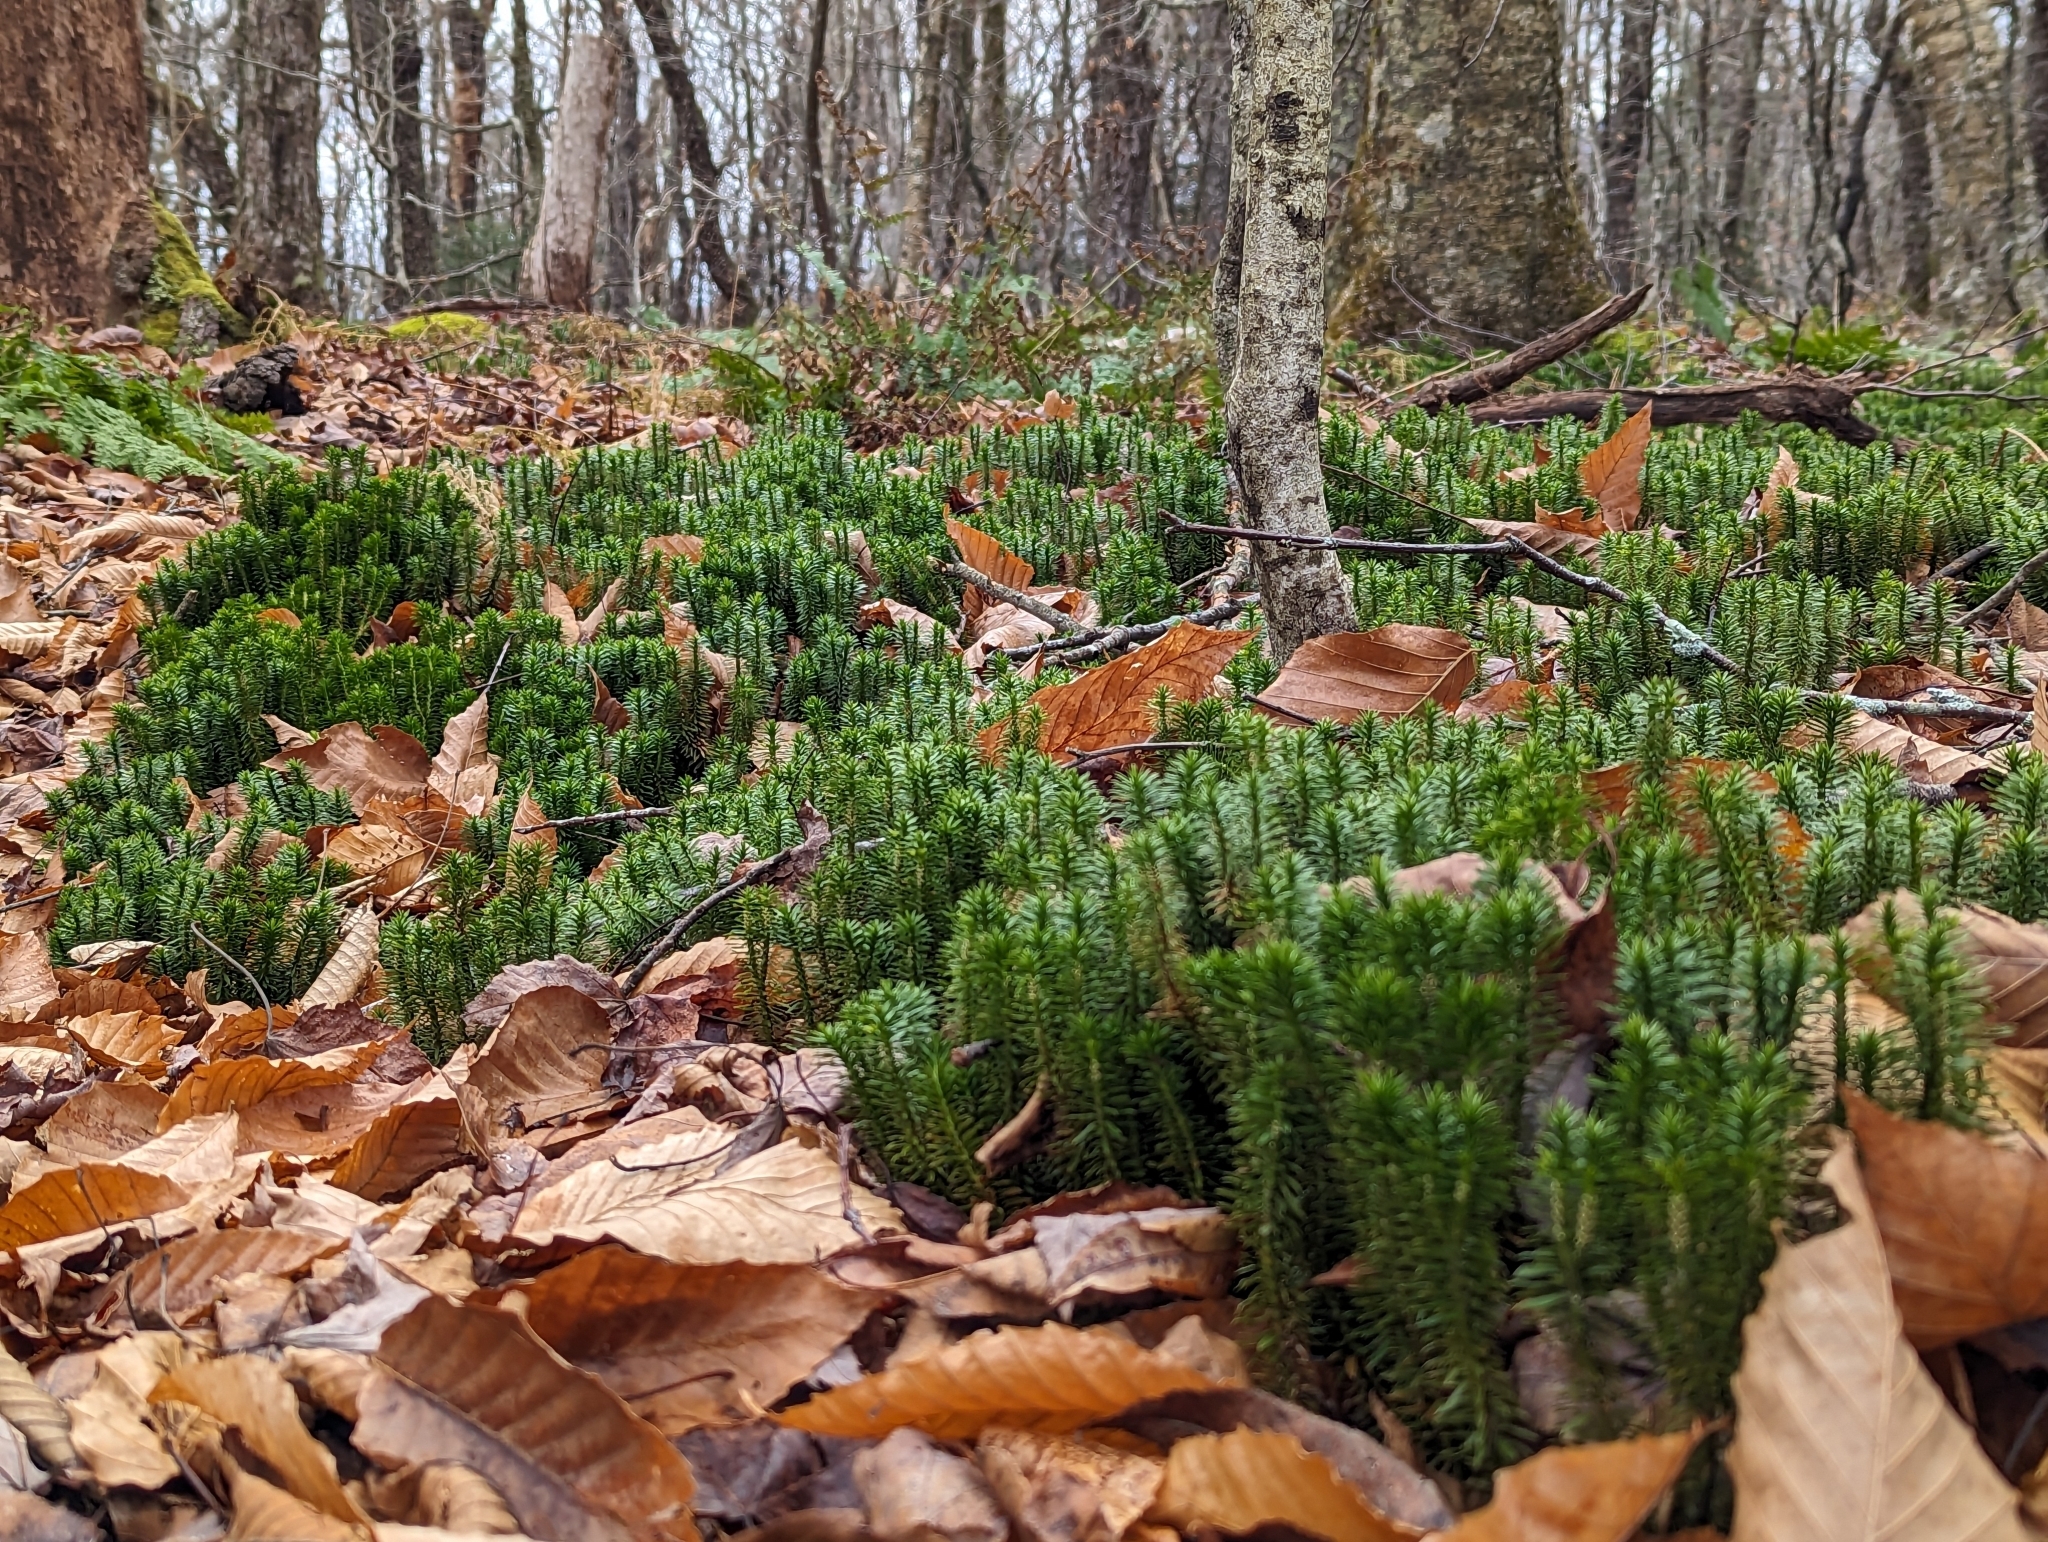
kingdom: Plantae
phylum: Tracheophyta
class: Lycopodiopsida
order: Lycopodiales
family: Lycopodiaceae
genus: Huperzia
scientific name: Huperzia lucidula
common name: Shining clubmoss
